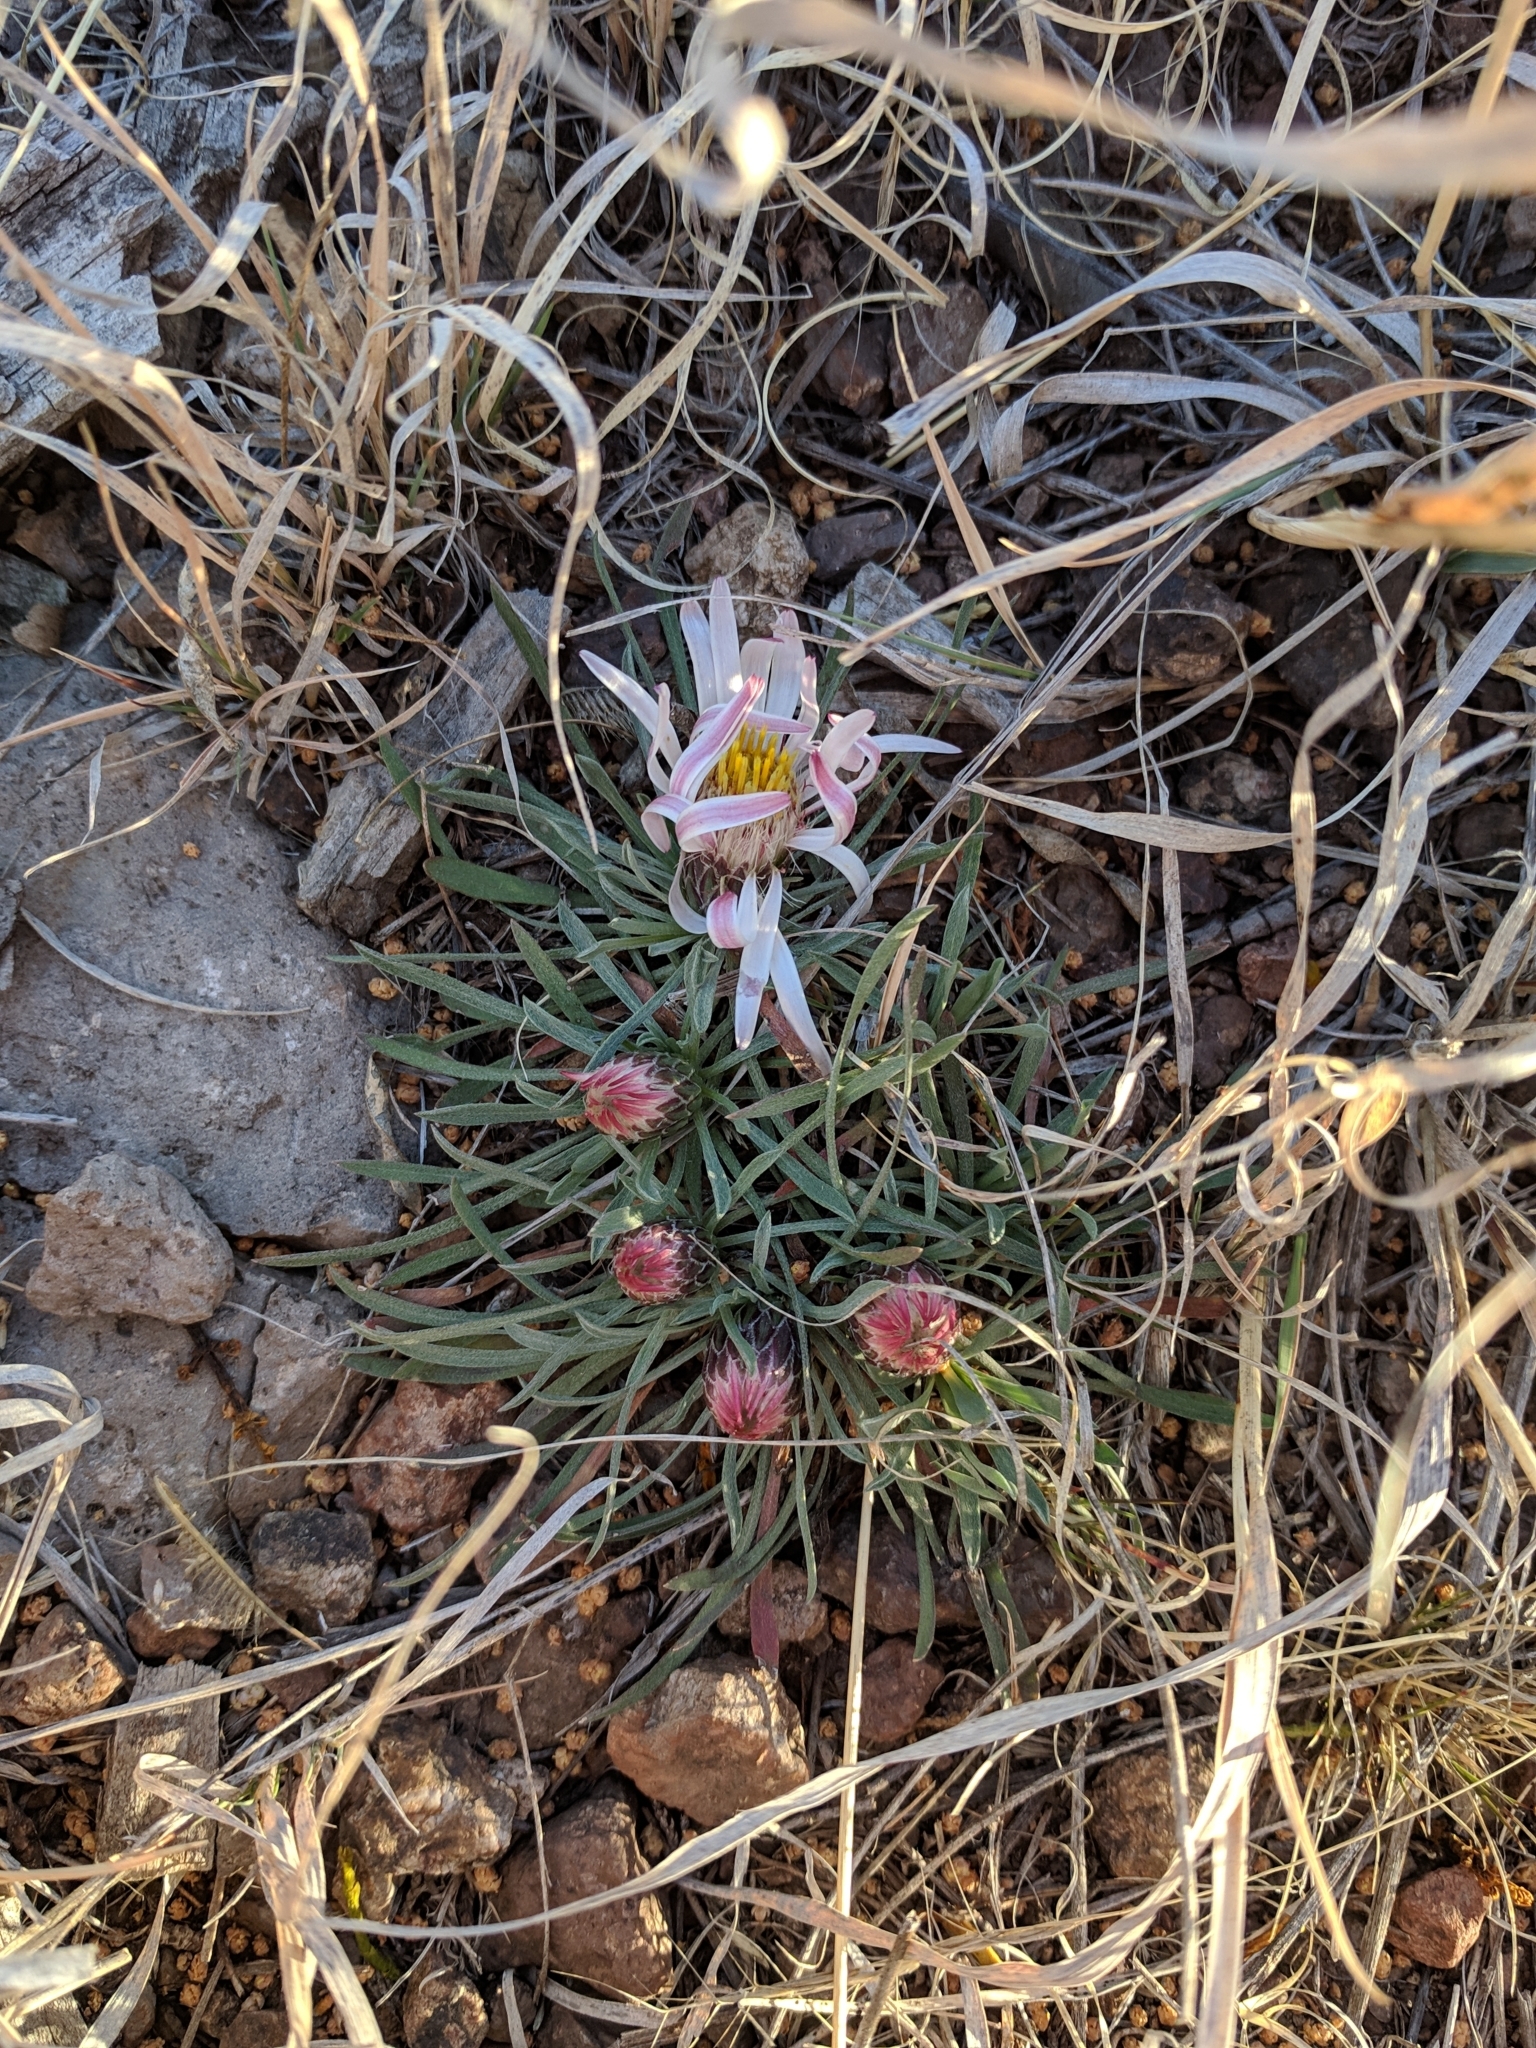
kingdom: Plantae
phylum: Tracheophyta
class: Magnoliopsida
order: Asterales
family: Asteraceae
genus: Townsendia
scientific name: Townsendia exscapa
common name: Dwarf townsendia
